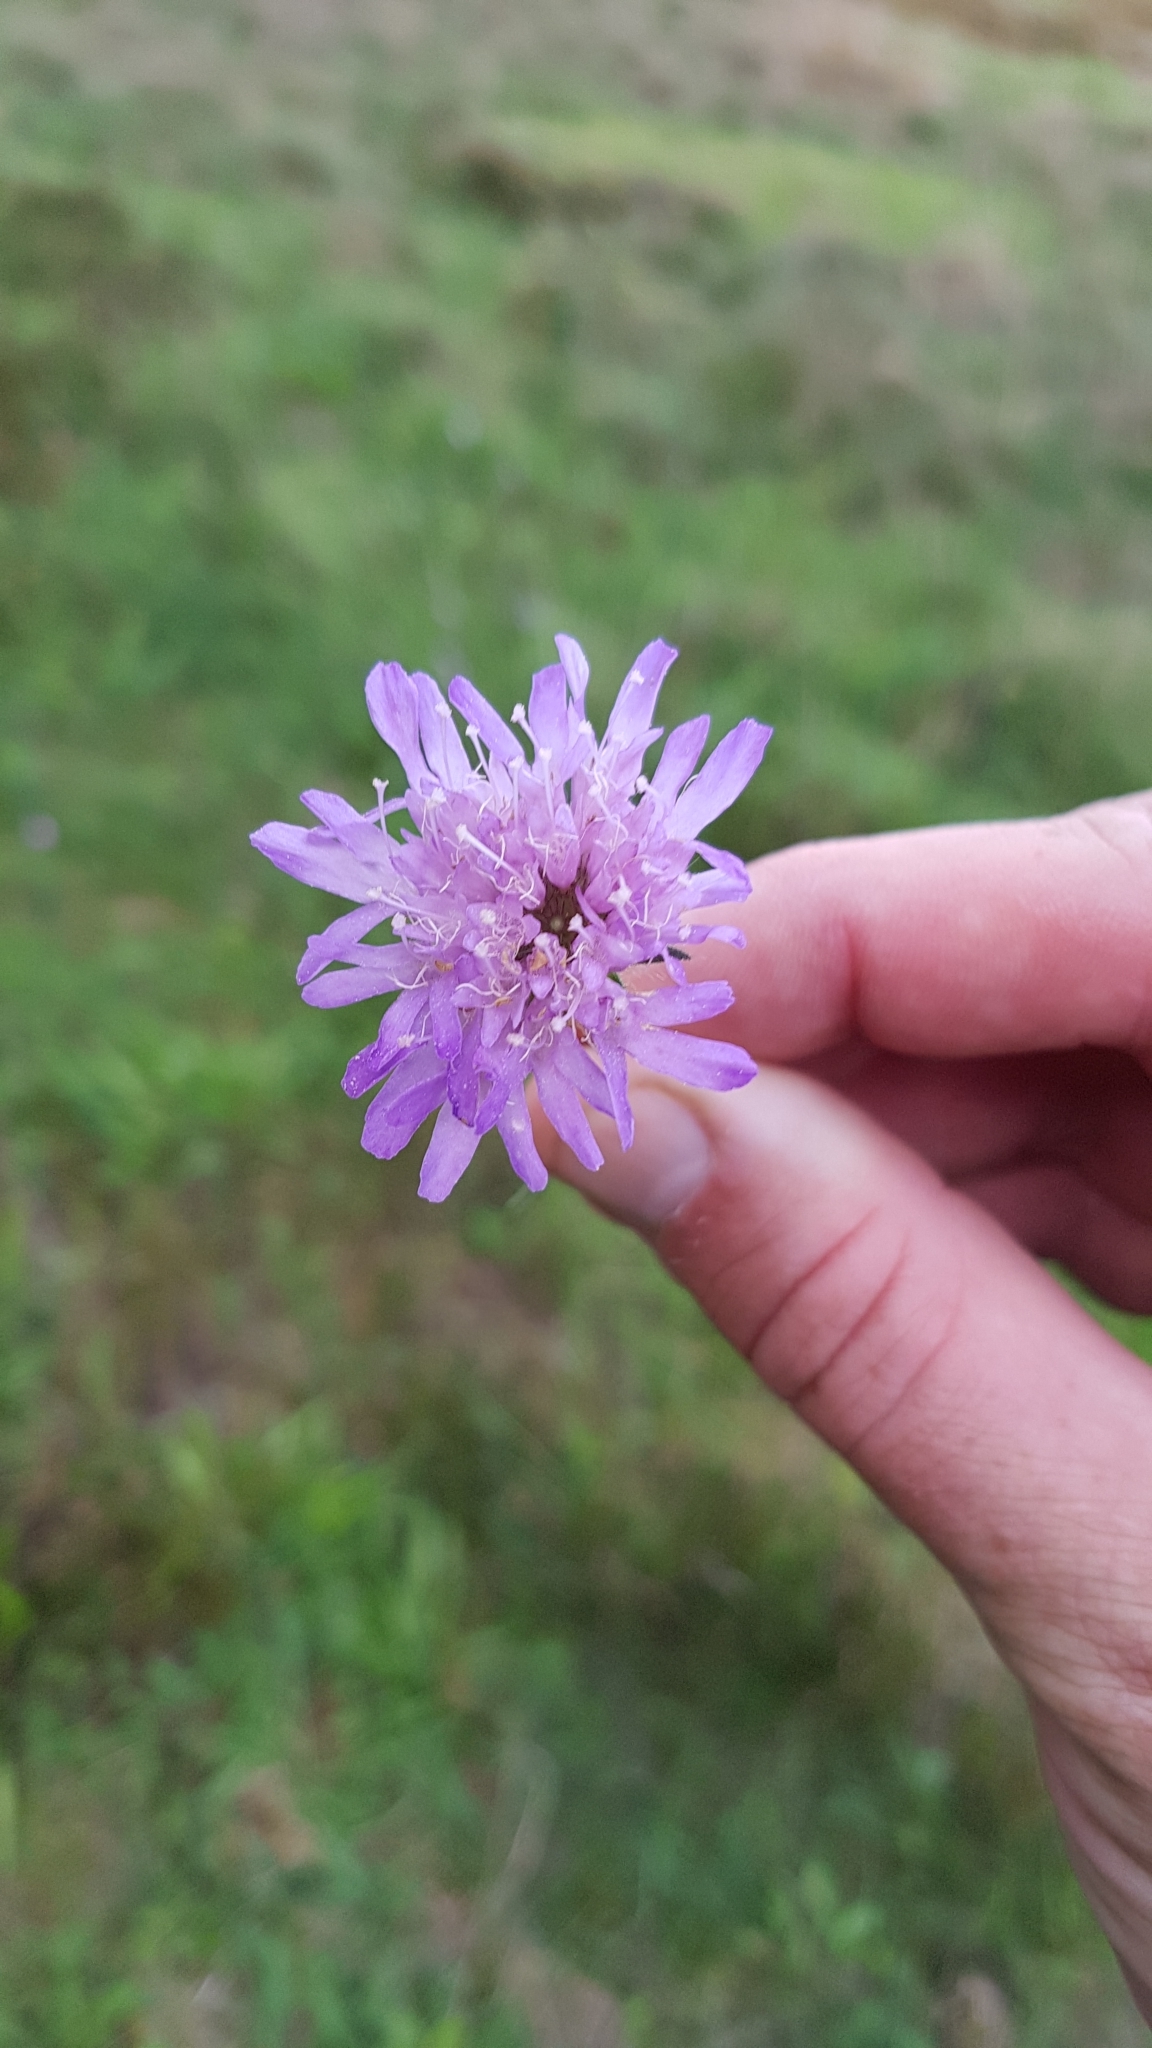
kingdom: Plantae
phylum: Tracheophyta
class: Magnoliopsida
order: Dipsacales
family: Caprifoliaceae
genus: Knautia
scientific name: Knautia arvensis
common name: Field scabiosa
